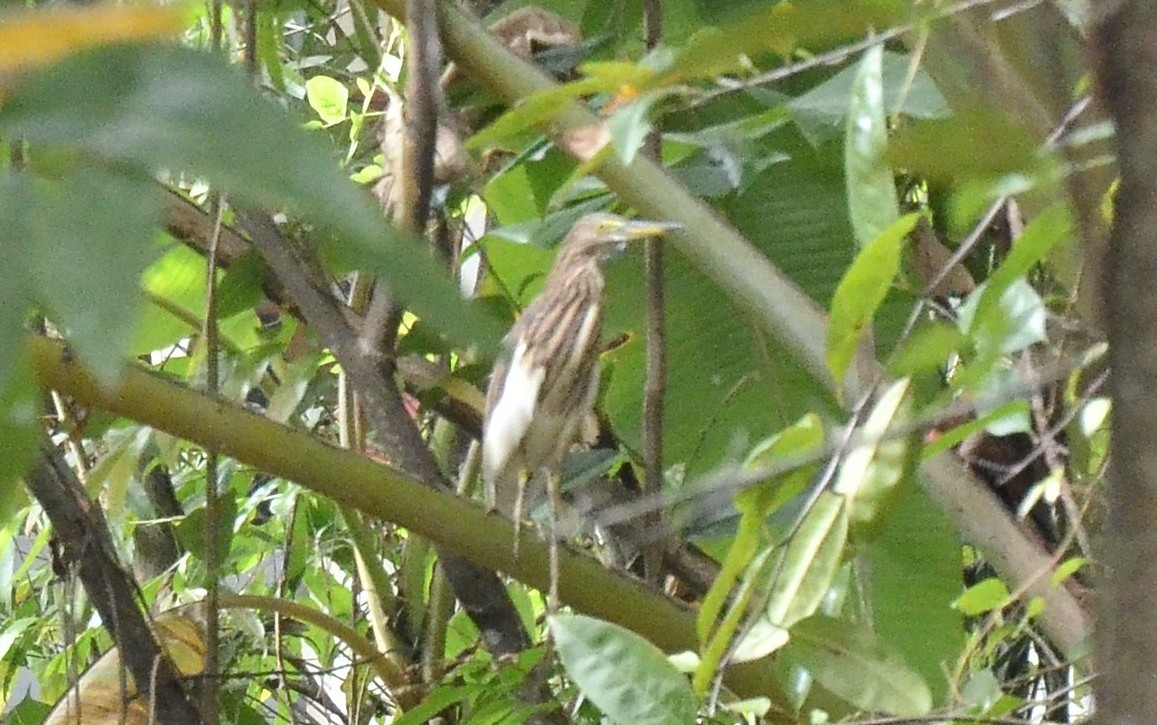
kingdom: Animalia
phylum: Chordata
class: Aves
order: Pelecaniformes
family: Ardeidae
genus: Ardeola
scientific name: Ardeola grayii
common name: Indian pond heron
